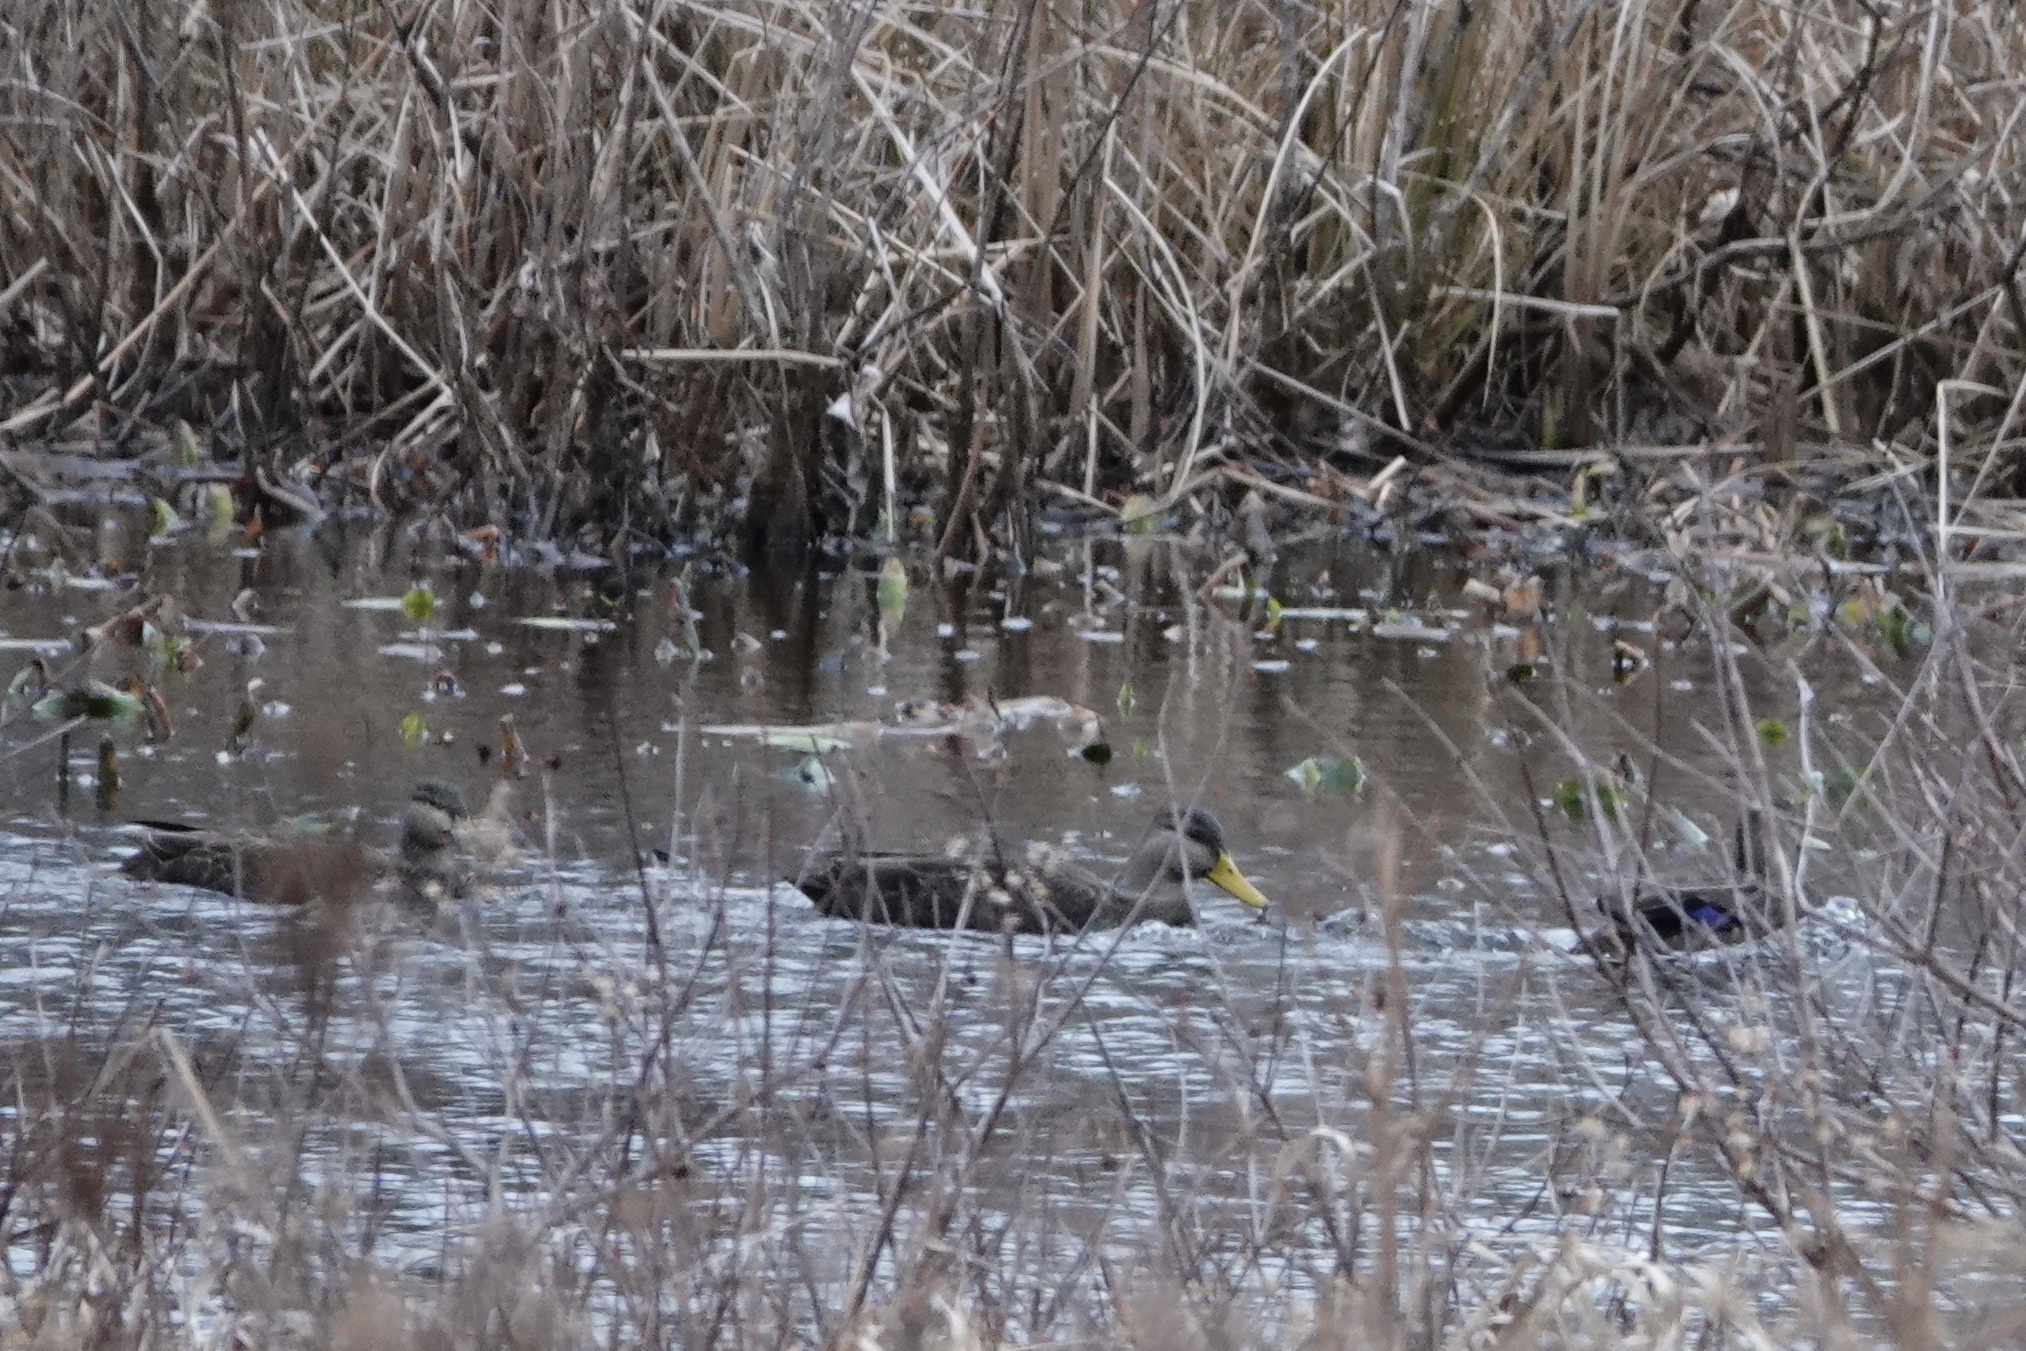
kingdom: Animalia
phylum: Chordata
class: Aves
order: Anseriformes
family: Anatidae
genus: Anas
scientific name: Anas rubripes
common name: American black duck
